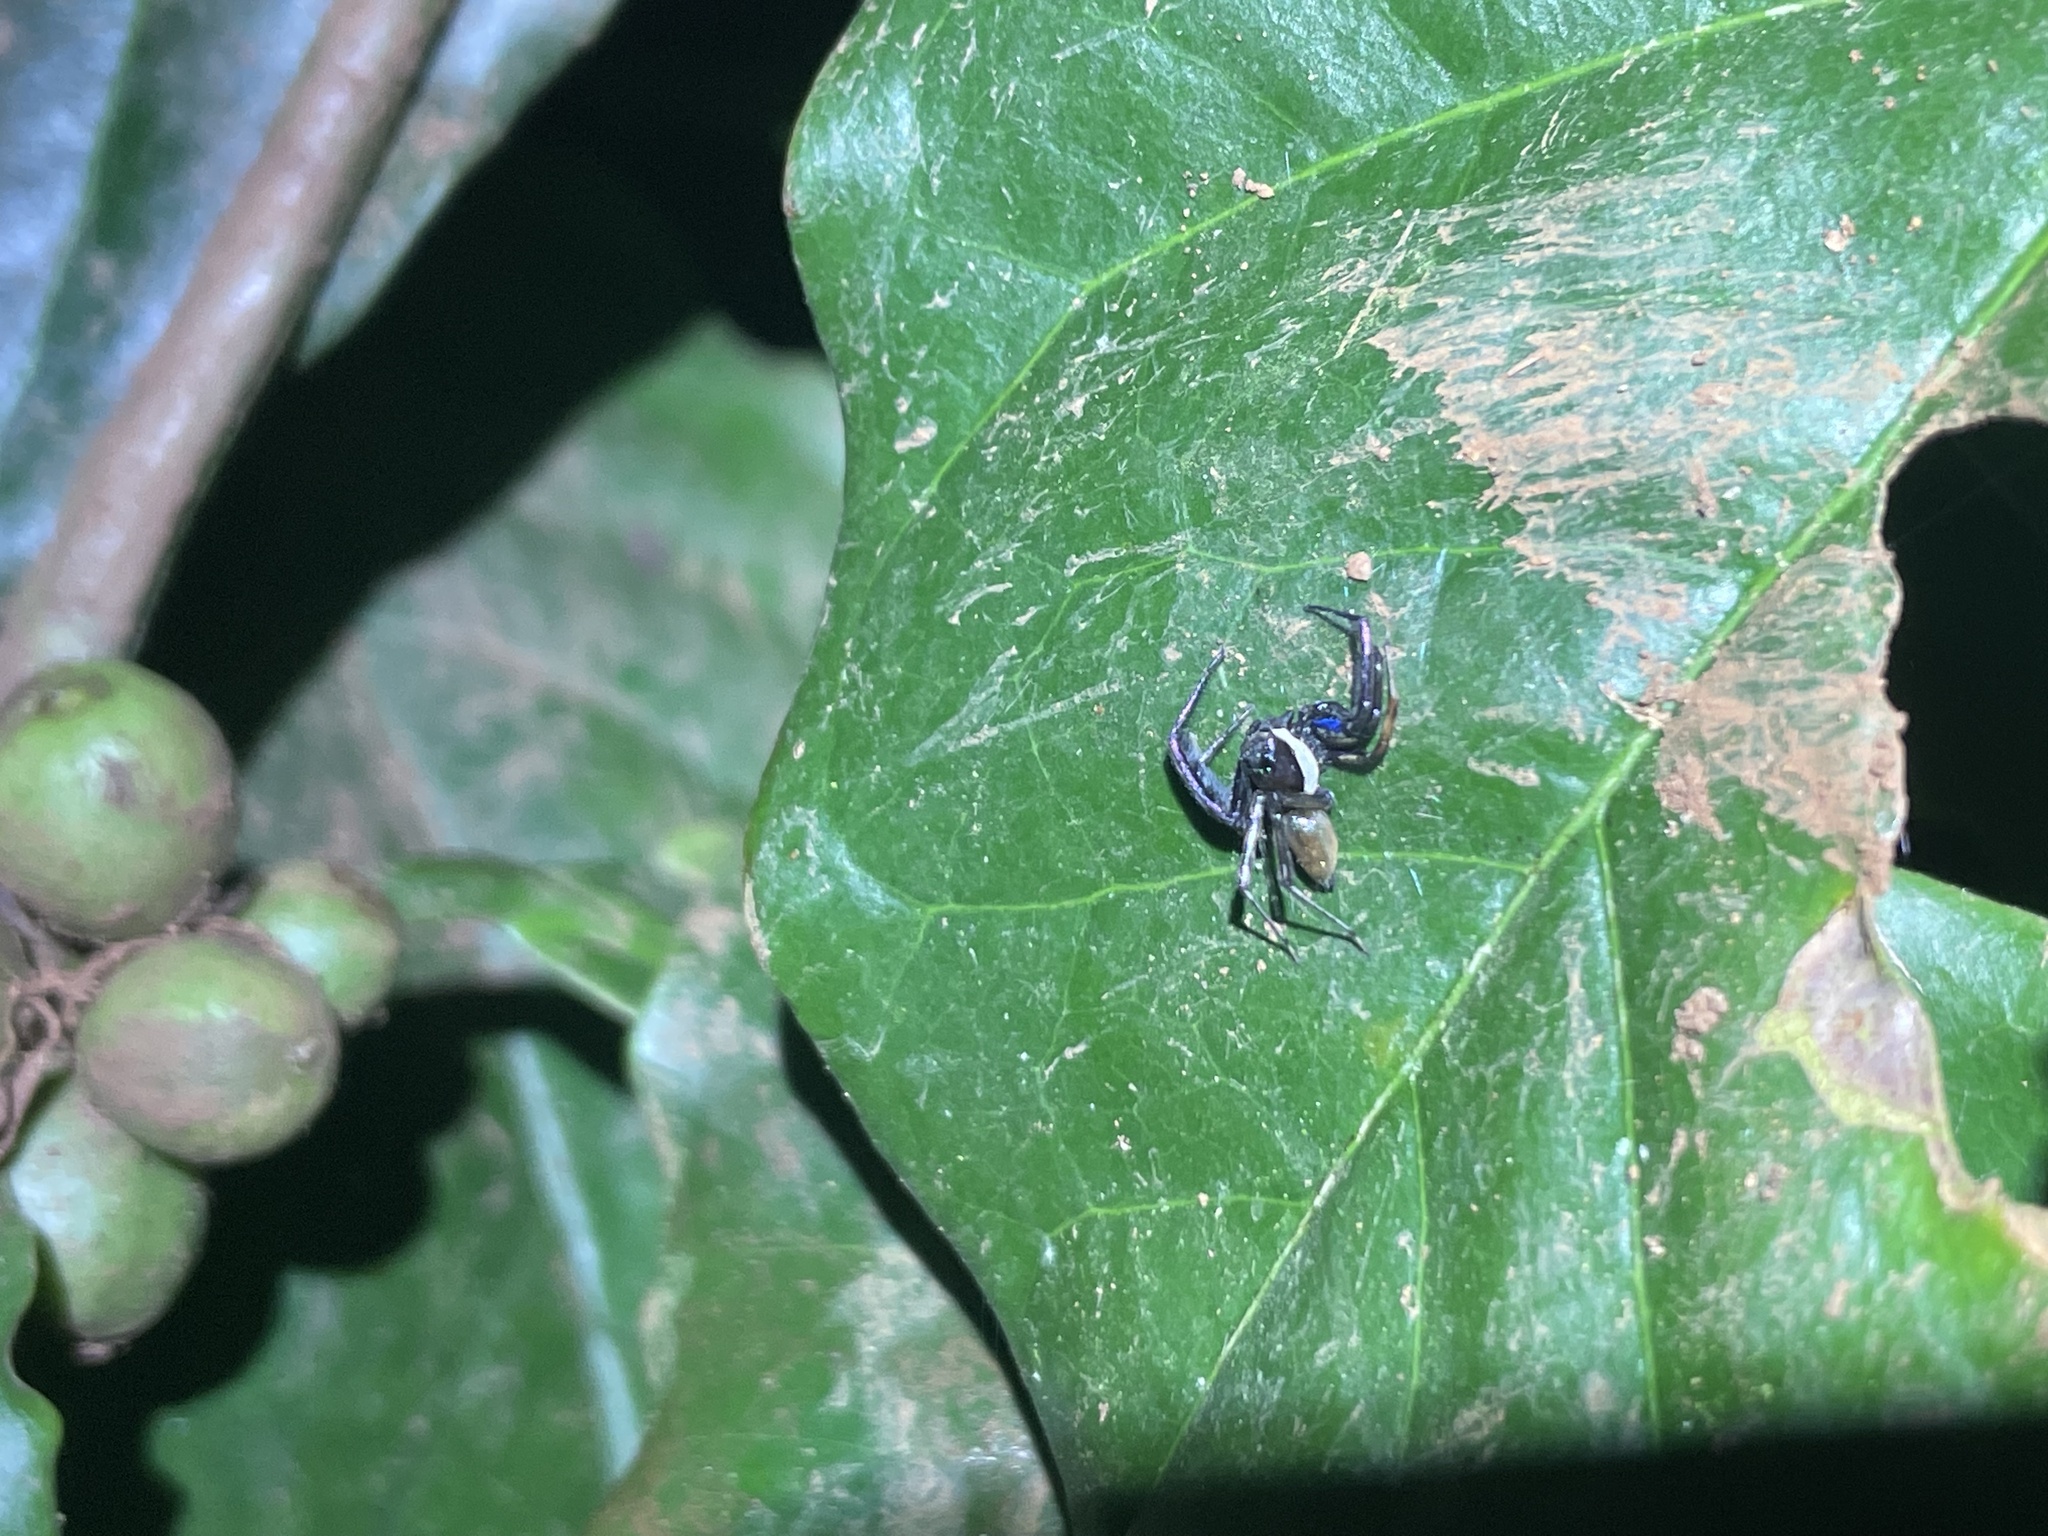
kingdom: Animalia
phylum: Arthropoda
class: Arachnida
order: Araneae
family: Salticidae
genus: Brettus
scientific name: Brettus cingulatus
